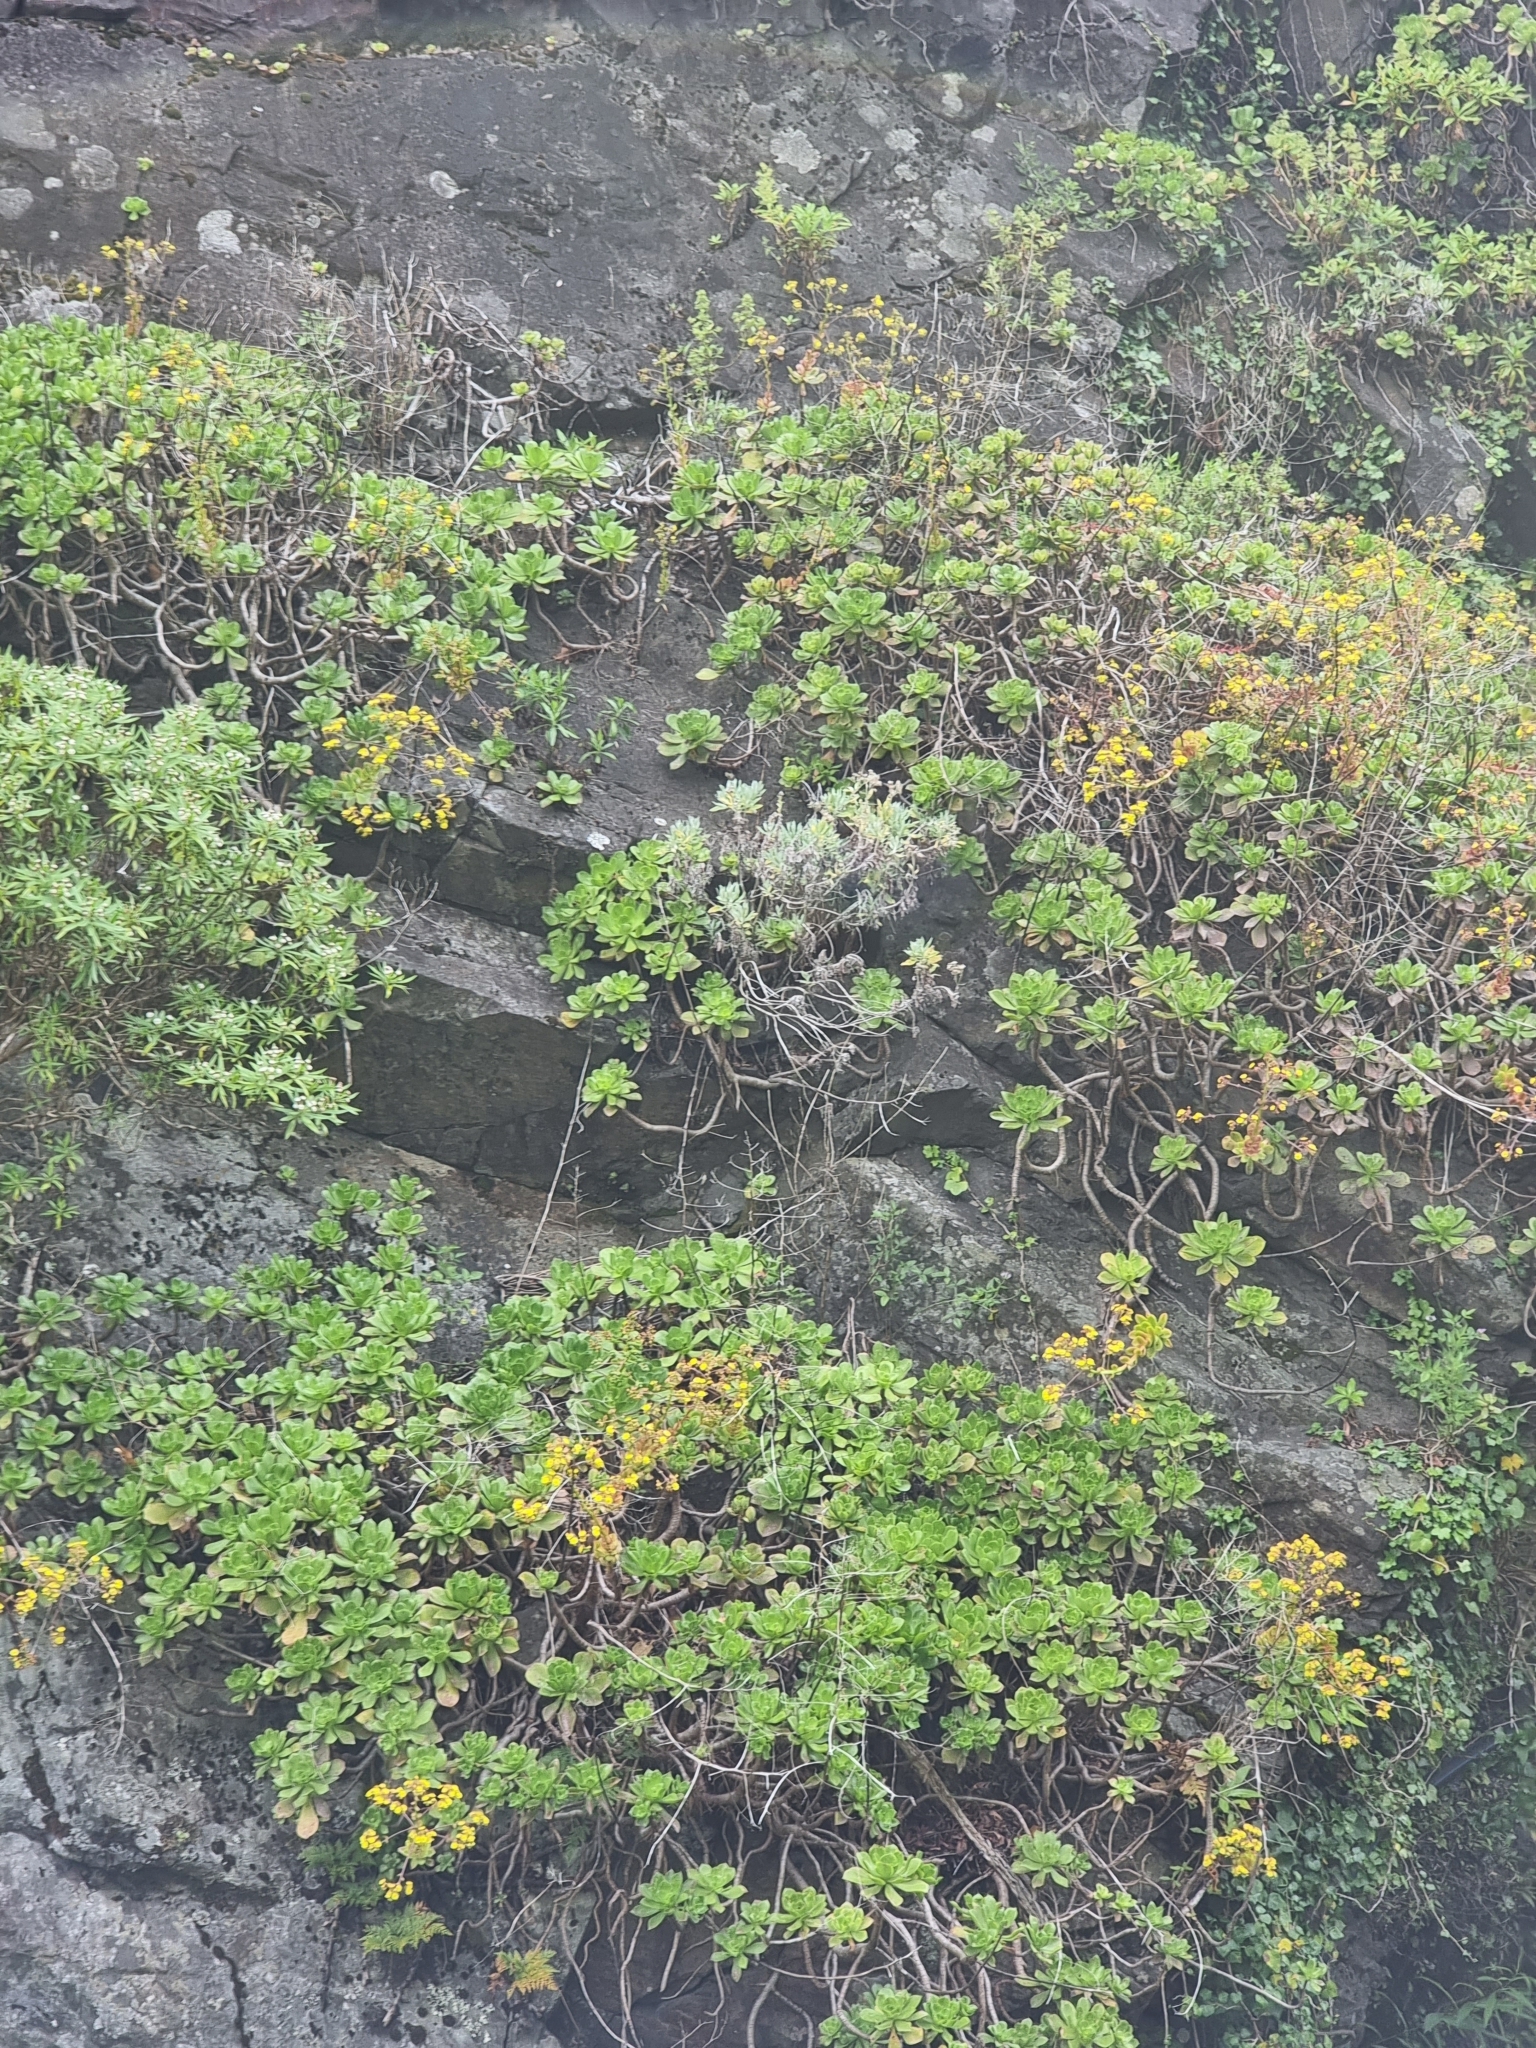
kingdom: Plantae
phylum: Tracheophyta
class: Magnoliopsida
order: Asterales
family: Asteraceae
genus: Helichrysum
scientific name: Helichrysum melaleucum
